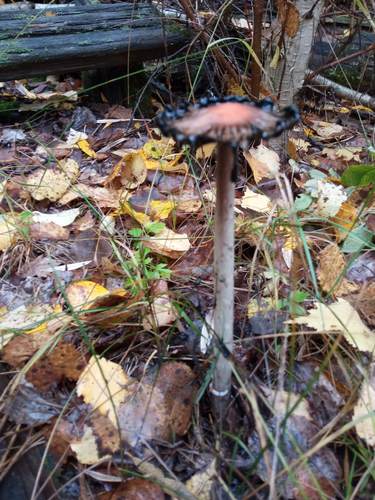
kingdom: Fungi
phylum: Basidiomycota
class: Agaricomycetes
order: Agaricales
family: Agaricaceae
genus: Coprinus
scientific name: Coprinus comatus
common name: Lawyer's wig
